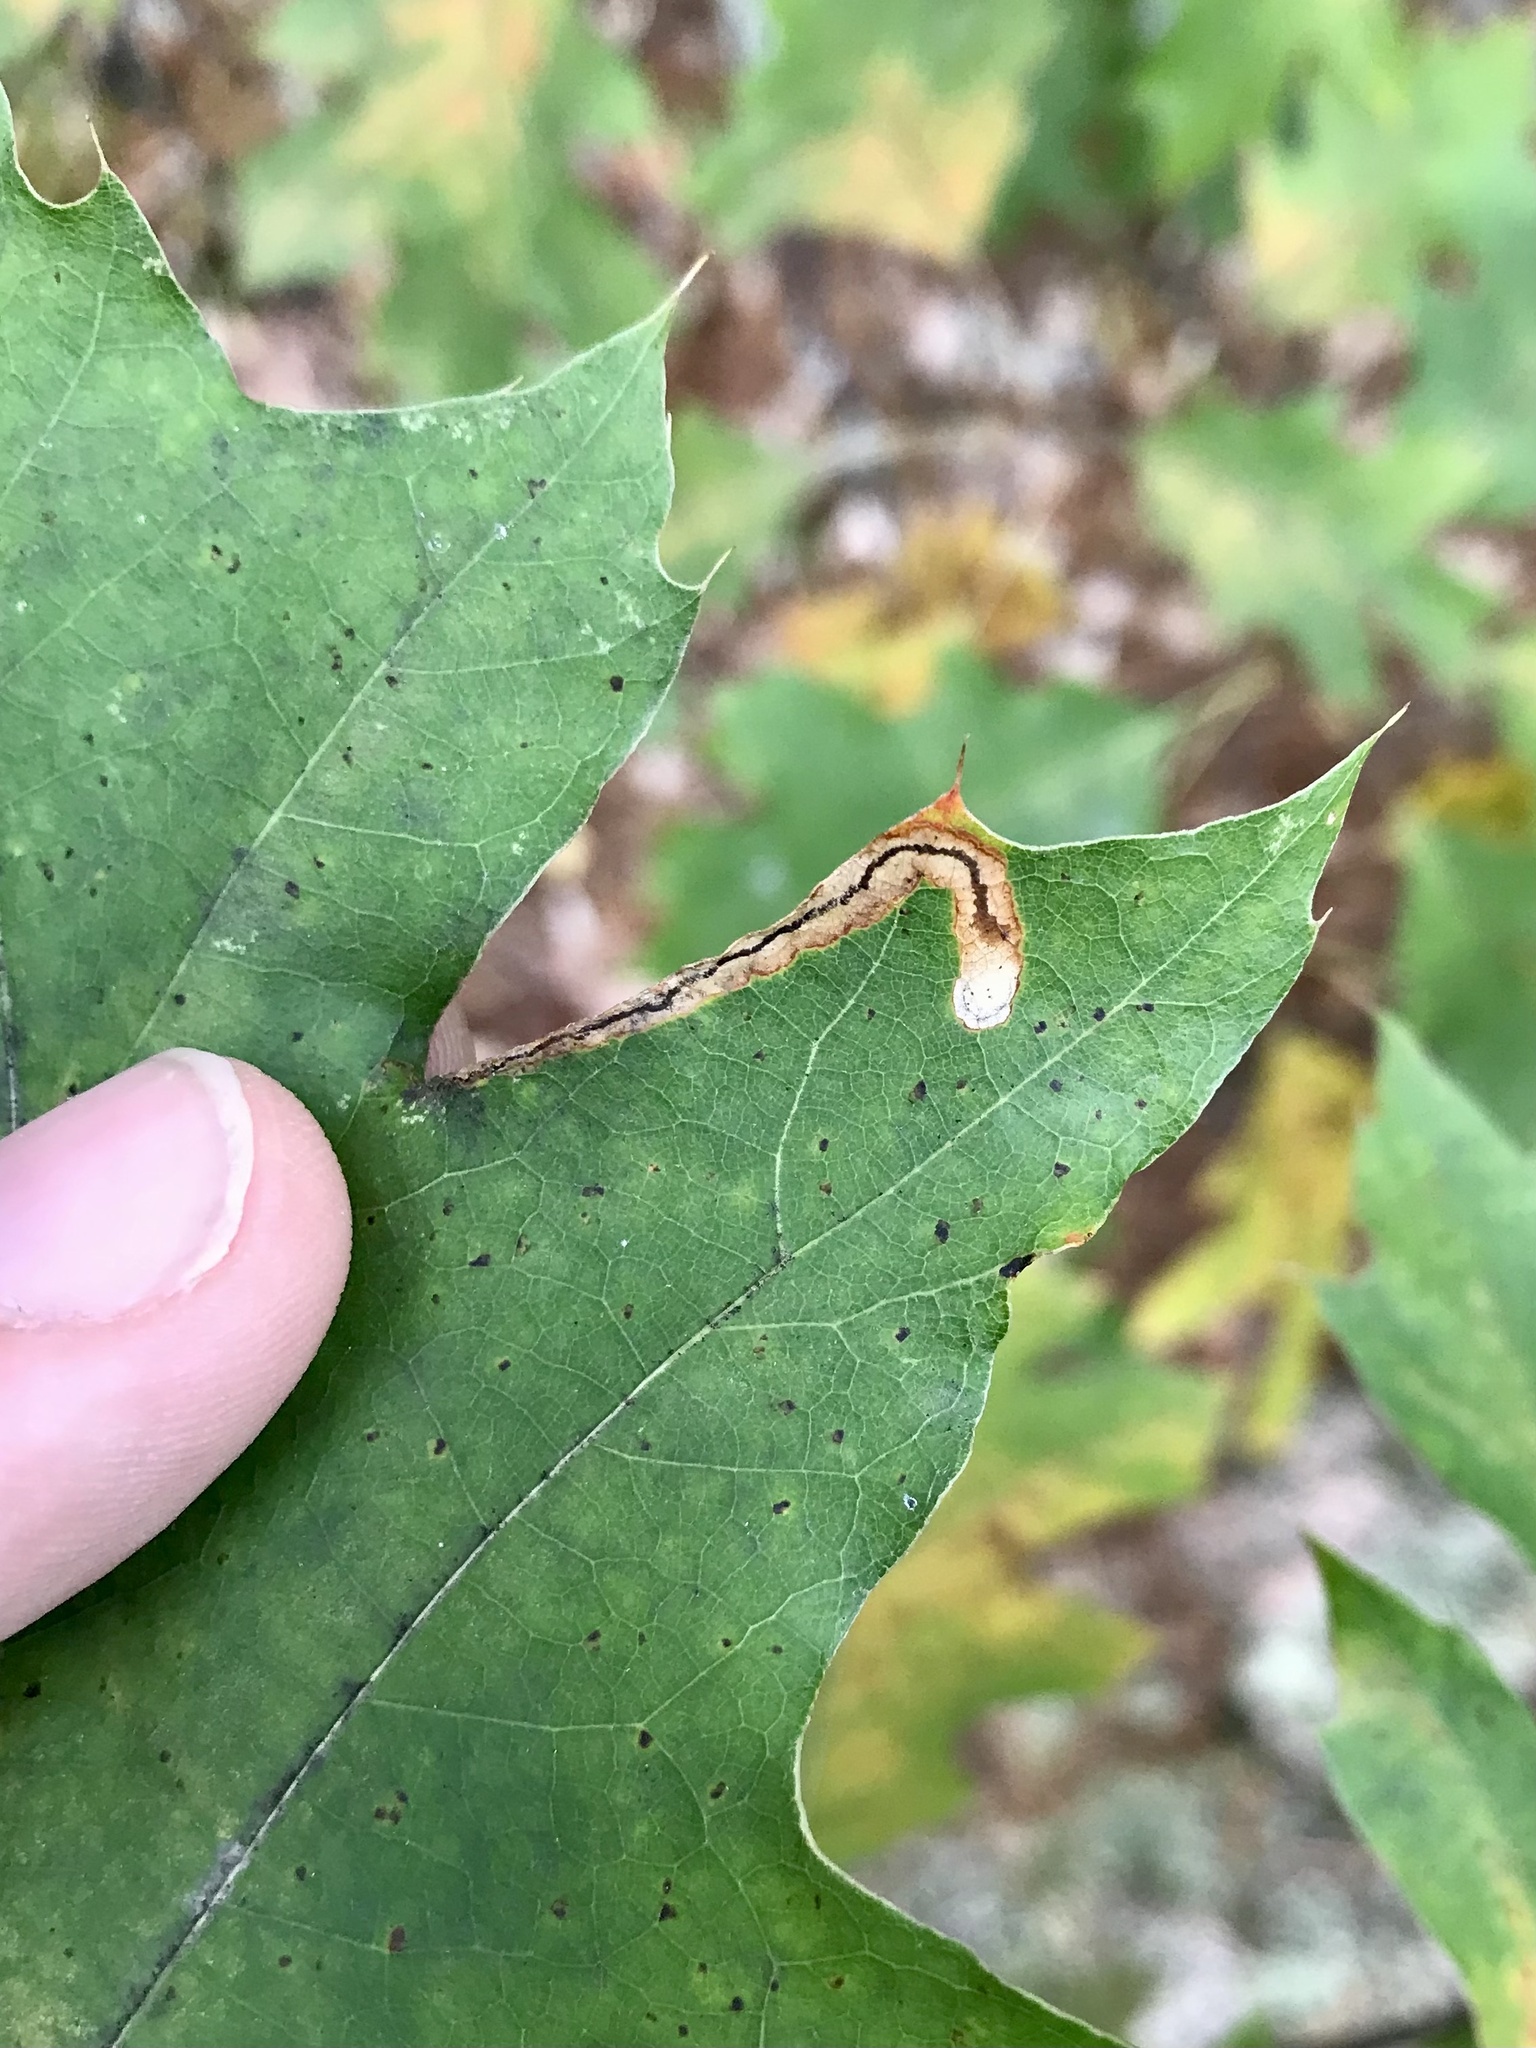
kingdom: Animalia
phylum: Arthropoda
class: Insecta
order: Lepidoptera
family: Nepticulidae
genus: Stigmella
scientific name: Stigmella quercipulchella
